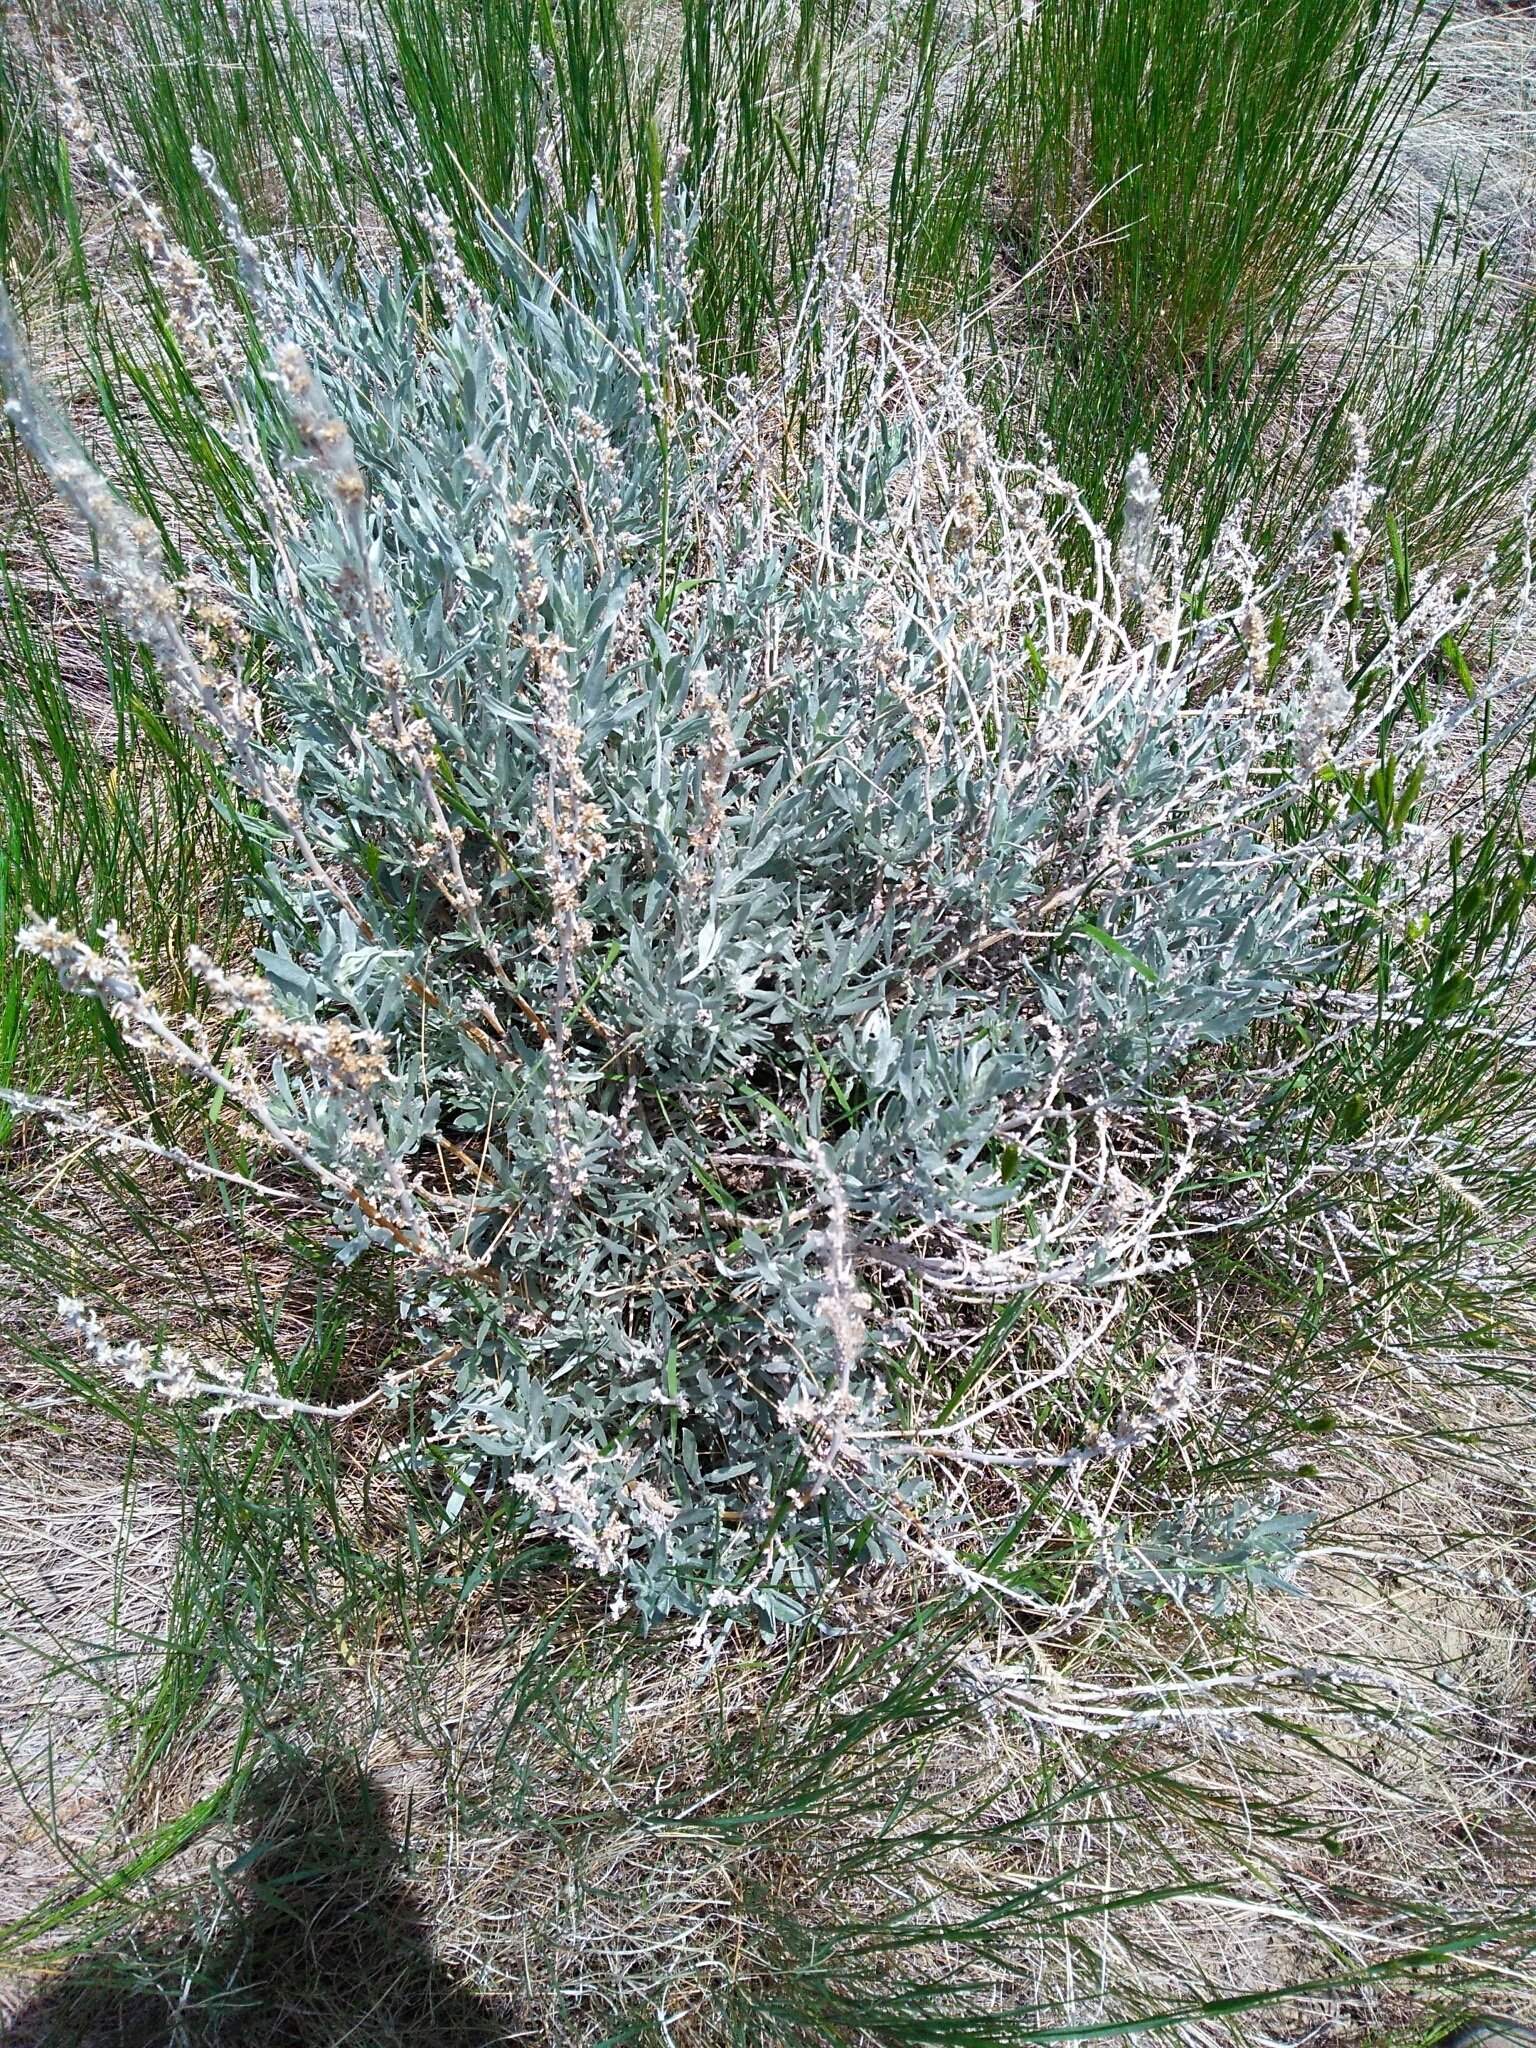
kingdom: Plantae
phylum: Tracheophyta
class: Magnoliopsida
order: Asterales
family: Asteraceae
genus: Artemisia
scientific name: Artemisia cana
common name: Silver sagebrush
